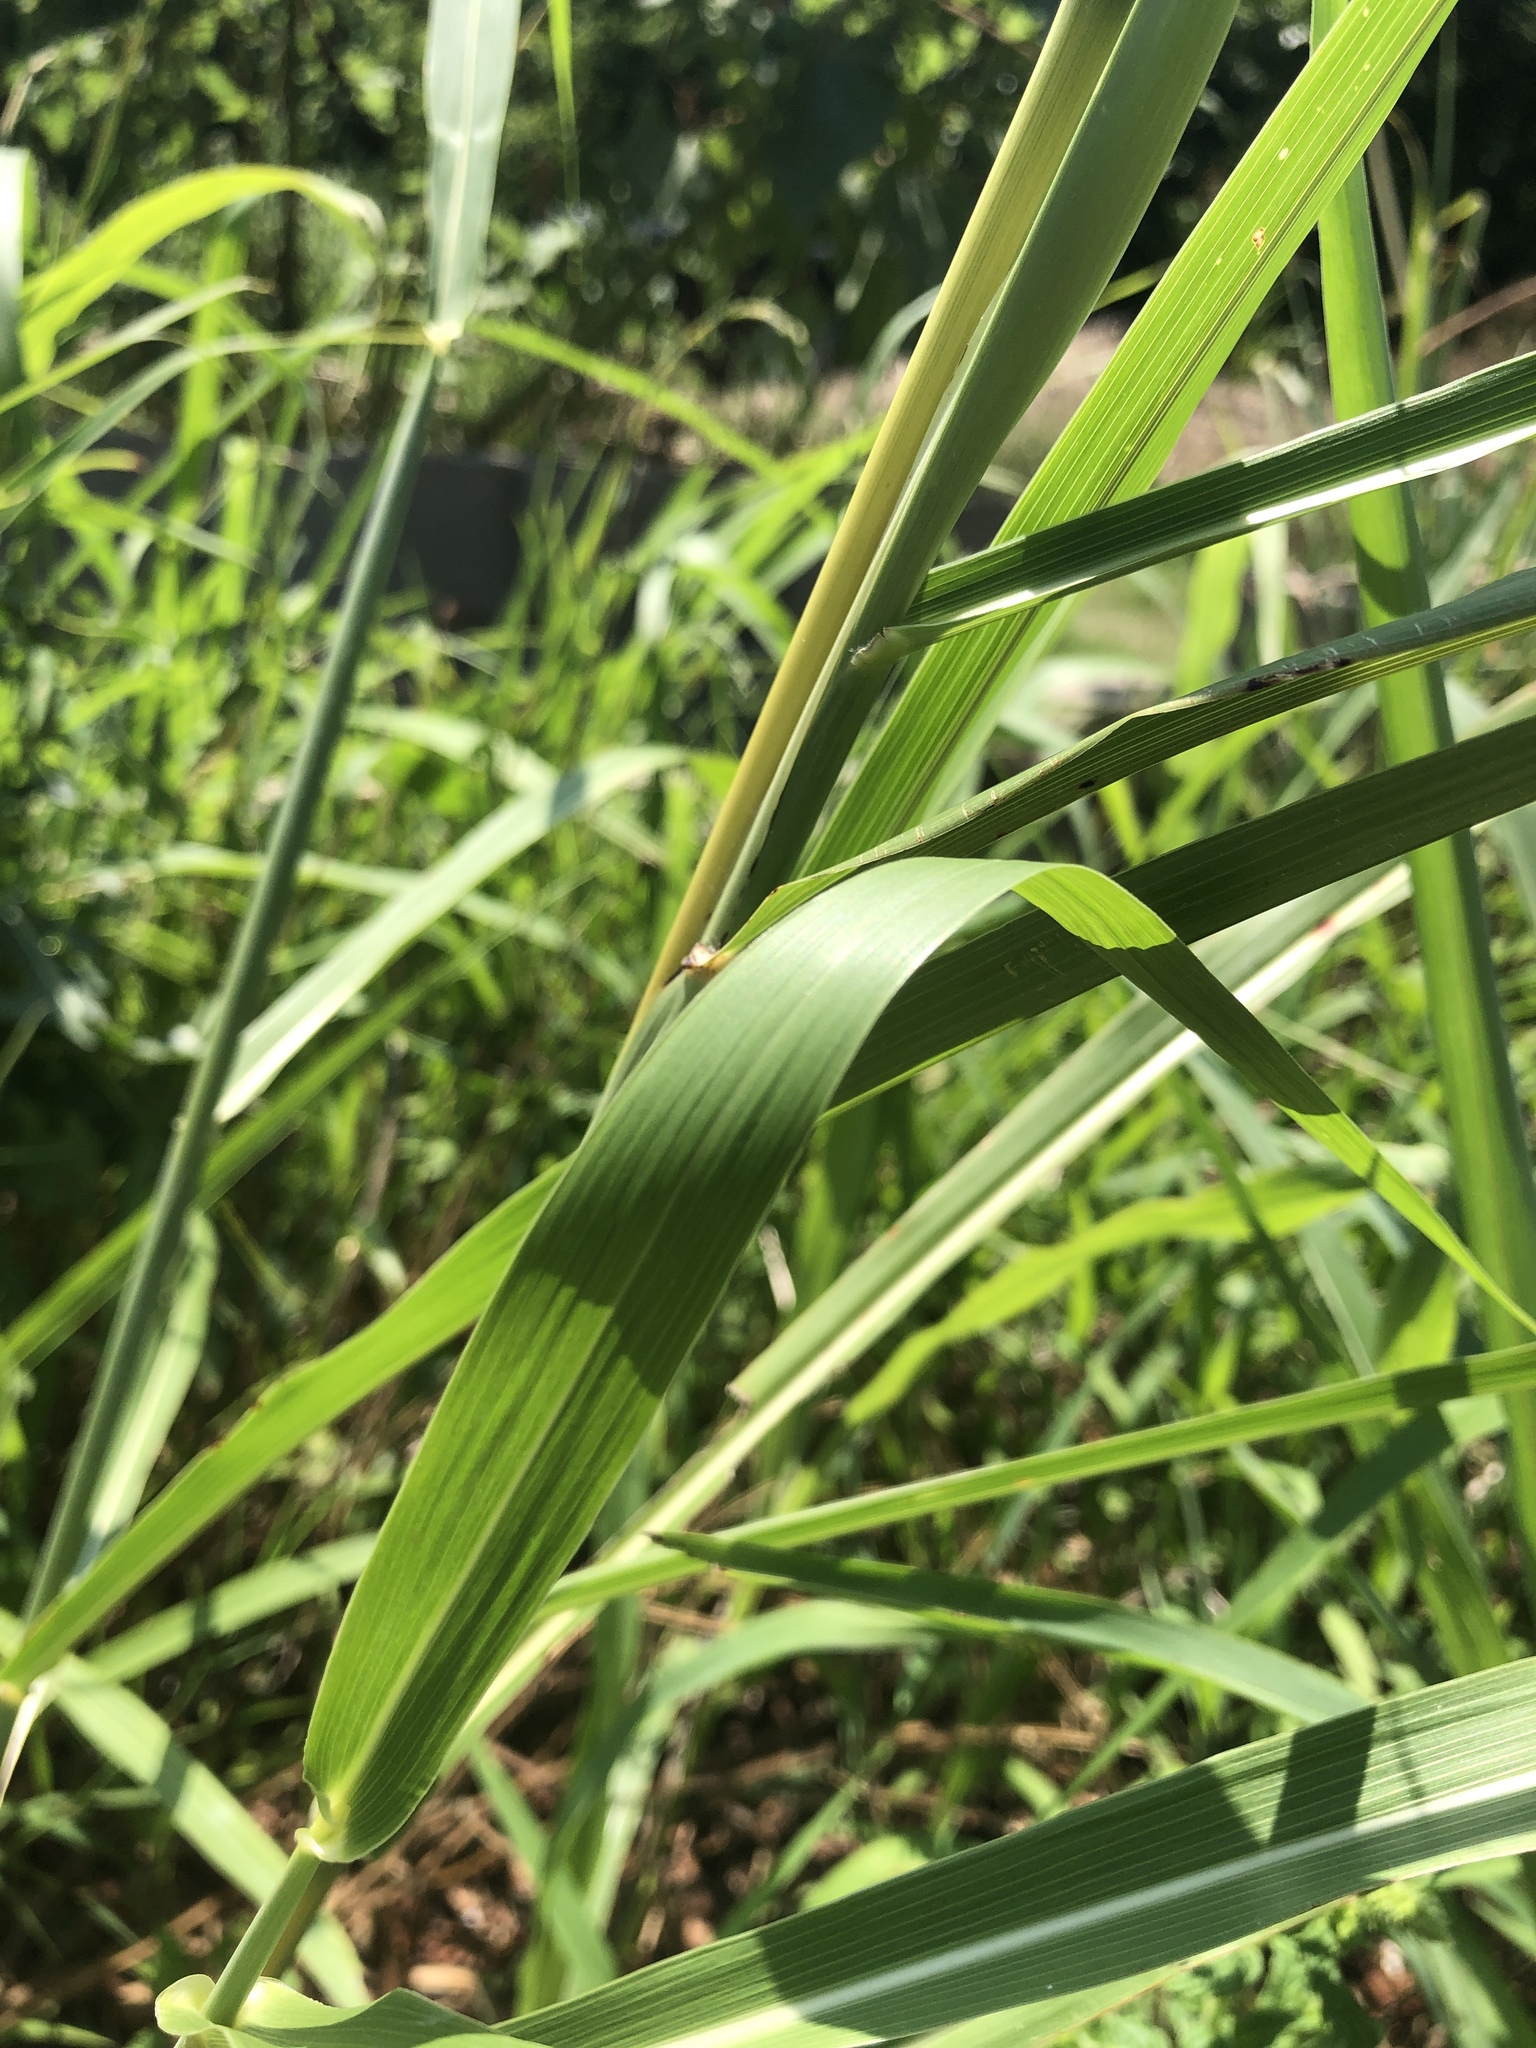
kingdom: Plantae
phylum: Tracheophyta
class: Liliopsida
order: Poales
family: Poaceae
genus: Sorghum
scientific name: Sorghum halepense
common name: Johnson-grass
